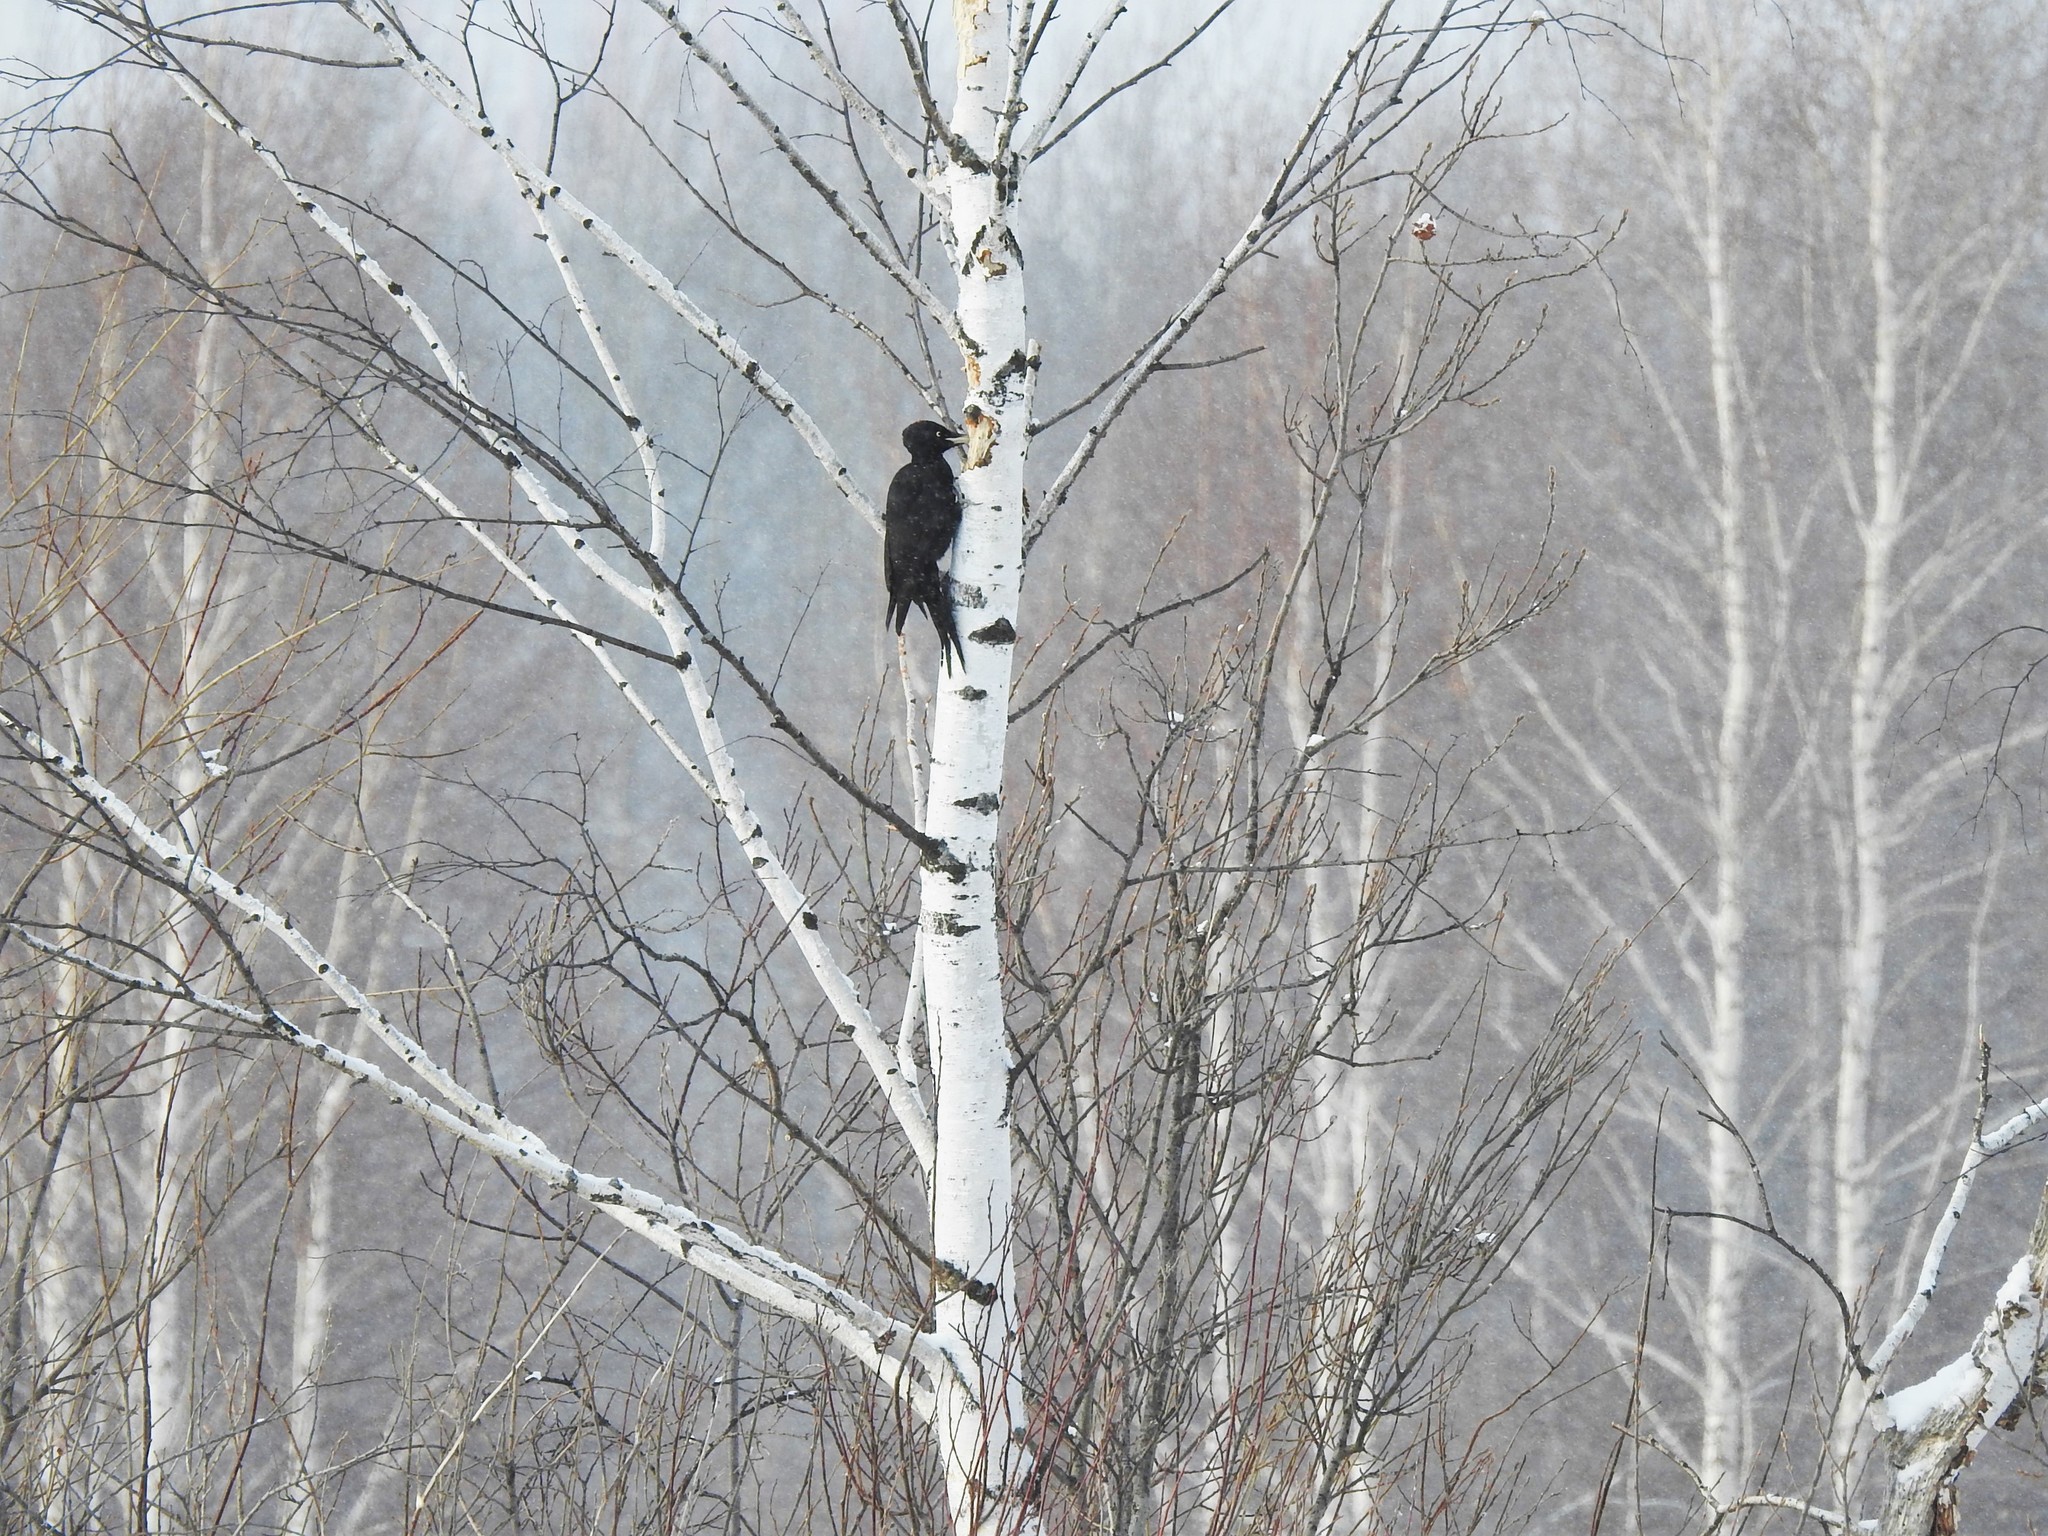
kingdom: Animalia
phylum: Chordata
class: Aves
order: Piciformes
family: Picidae
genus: Dryocopus
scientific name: Dryocopus martius
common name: Black woodpecker
